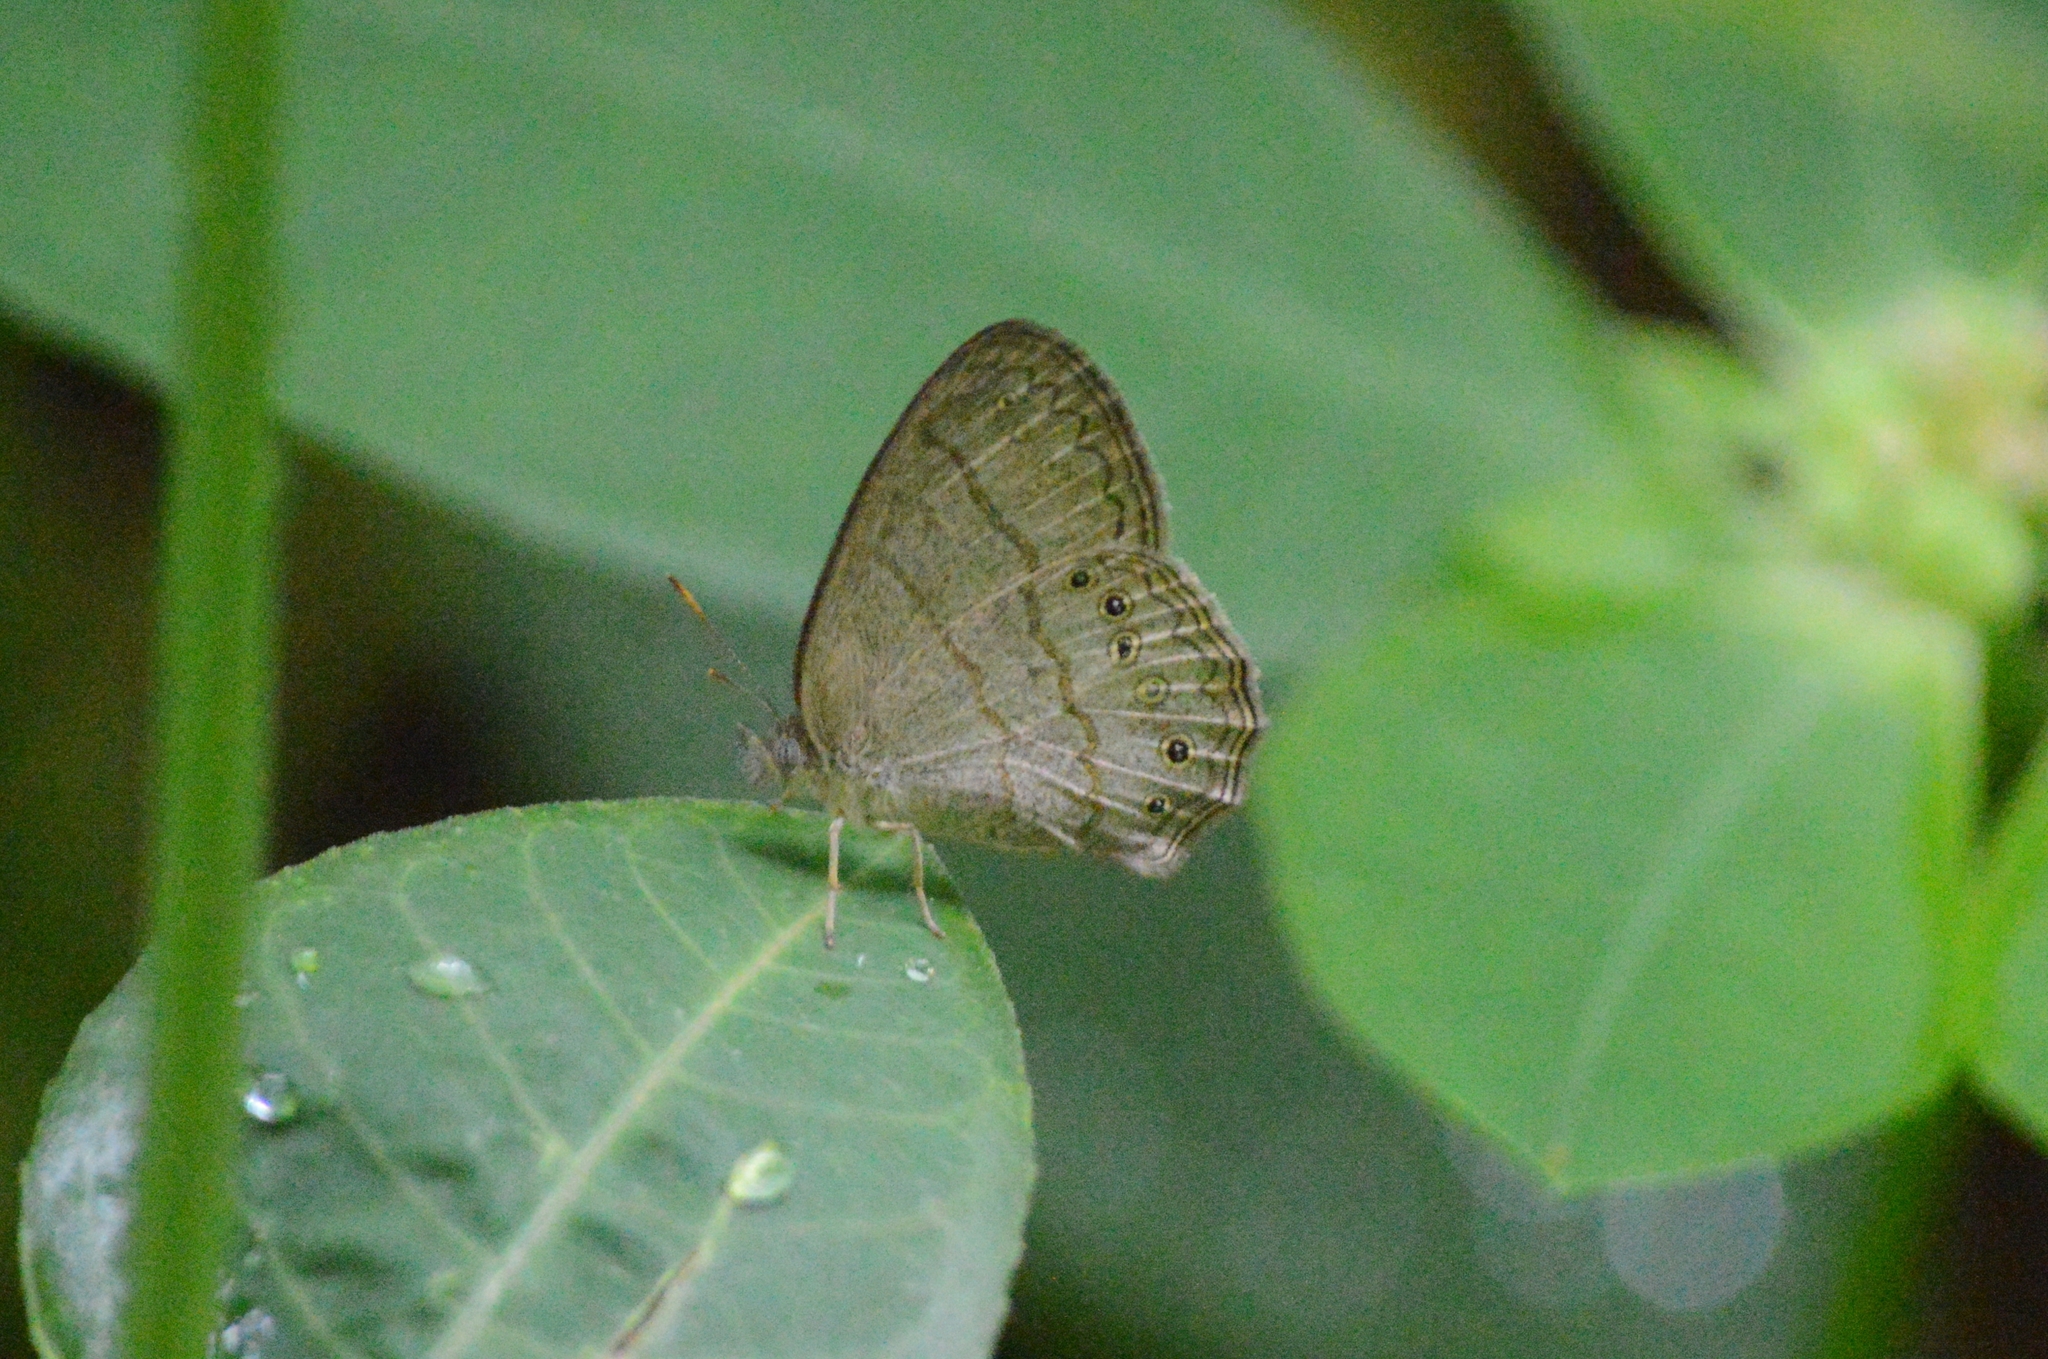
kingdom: Animalia
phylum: Arthropoda
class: Insecta
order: Lepidoptera
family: Nymphalidae
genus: Paryphthimoides
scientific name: Paryphthimoides poltys
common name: Poltys satyr
